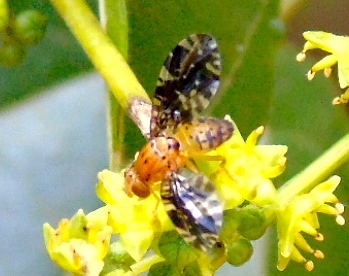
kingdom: Animalia
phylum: Arthropoda
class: Insecta
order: Diptera
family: Tephritidae
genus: Blepharoneura
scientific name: Blepharoneura
